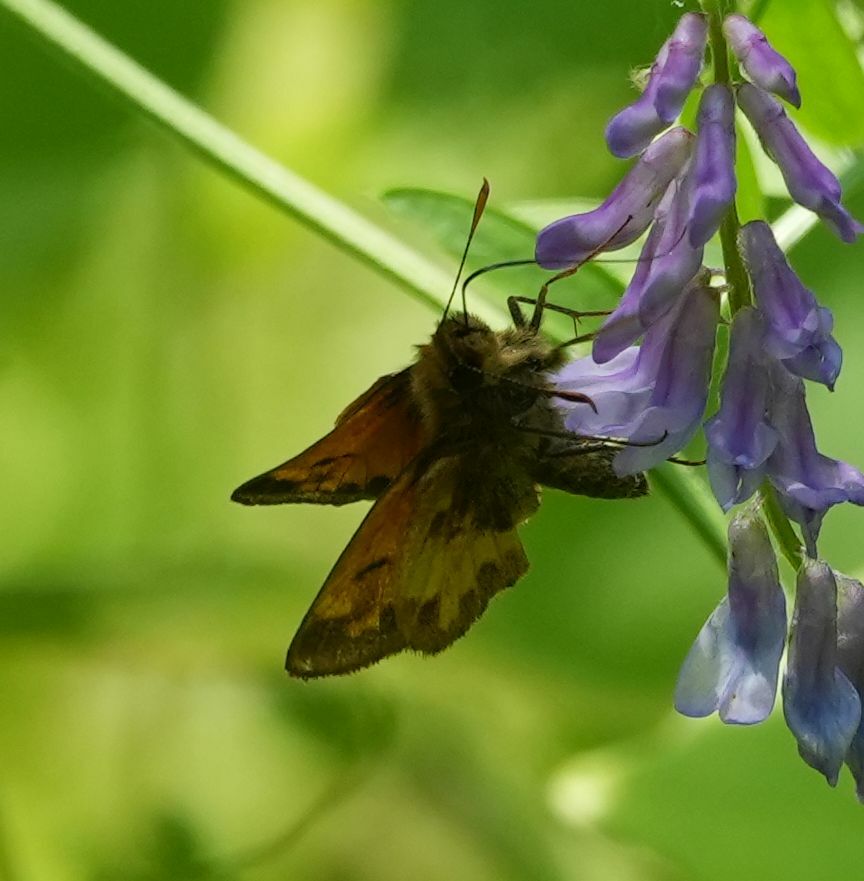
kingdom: Animalia
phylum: Arthropoda
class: Insecta
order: Lepidoptera
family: Hesperiidae
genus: Lon
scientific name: Lon hobomok
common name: Hobomok skipper
